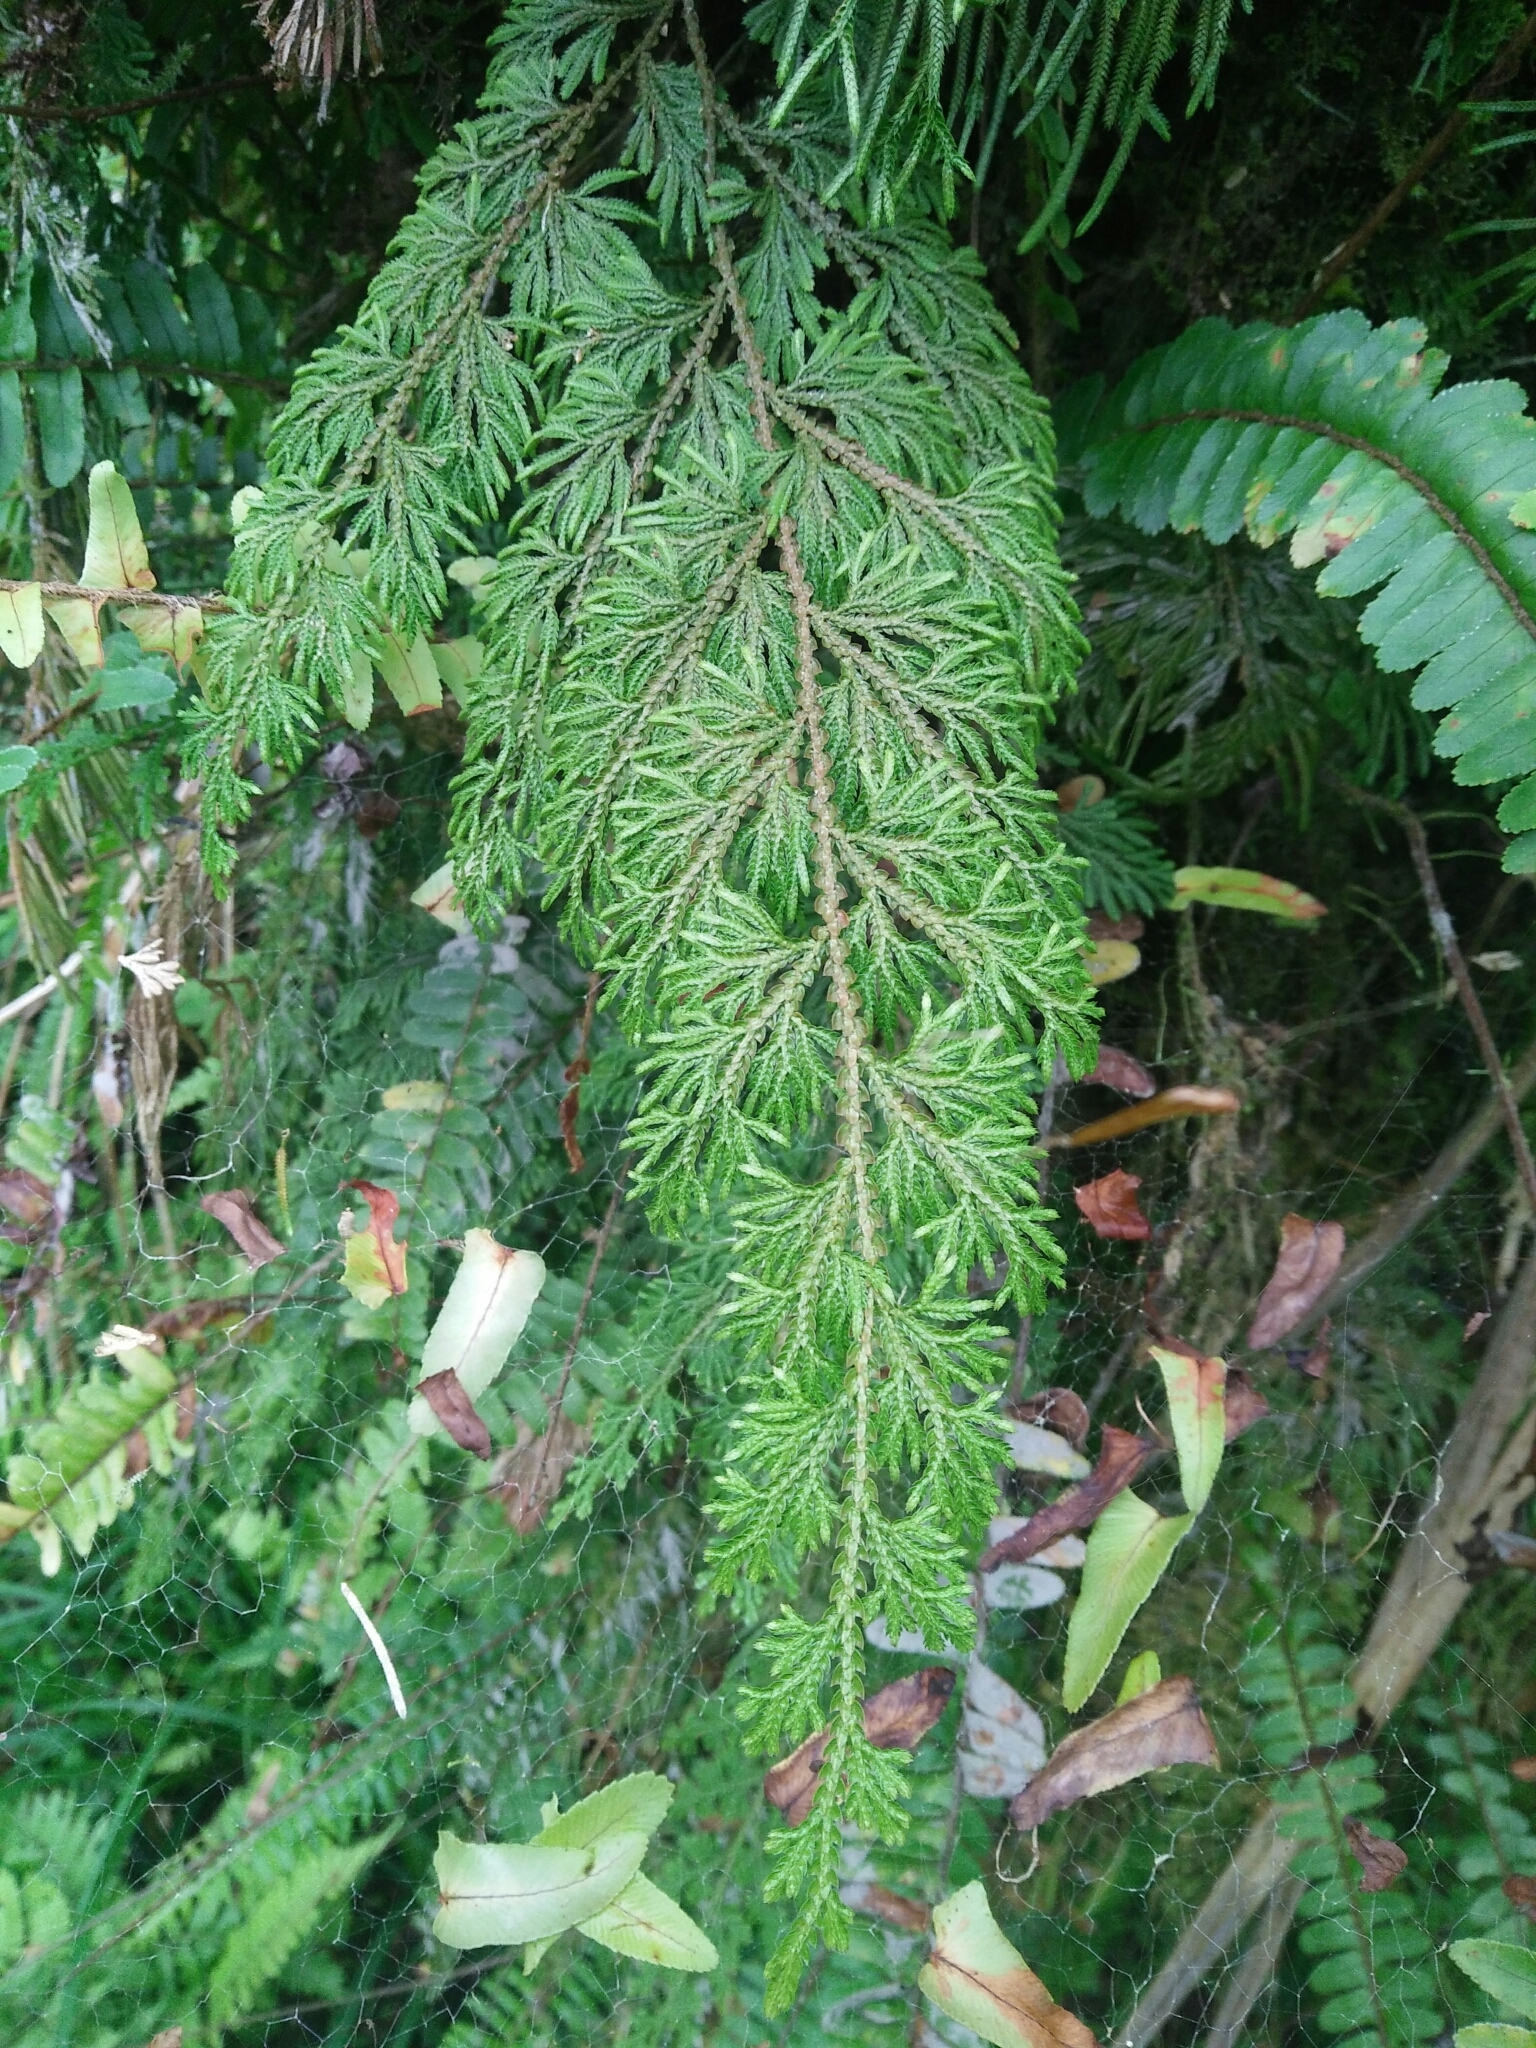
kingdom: Plantae
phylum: Tracheophyta
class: Lycopodiopsida
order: Selaginellales
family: Selaginellaceae
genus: Selaginella
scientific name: Selaginella involvens
